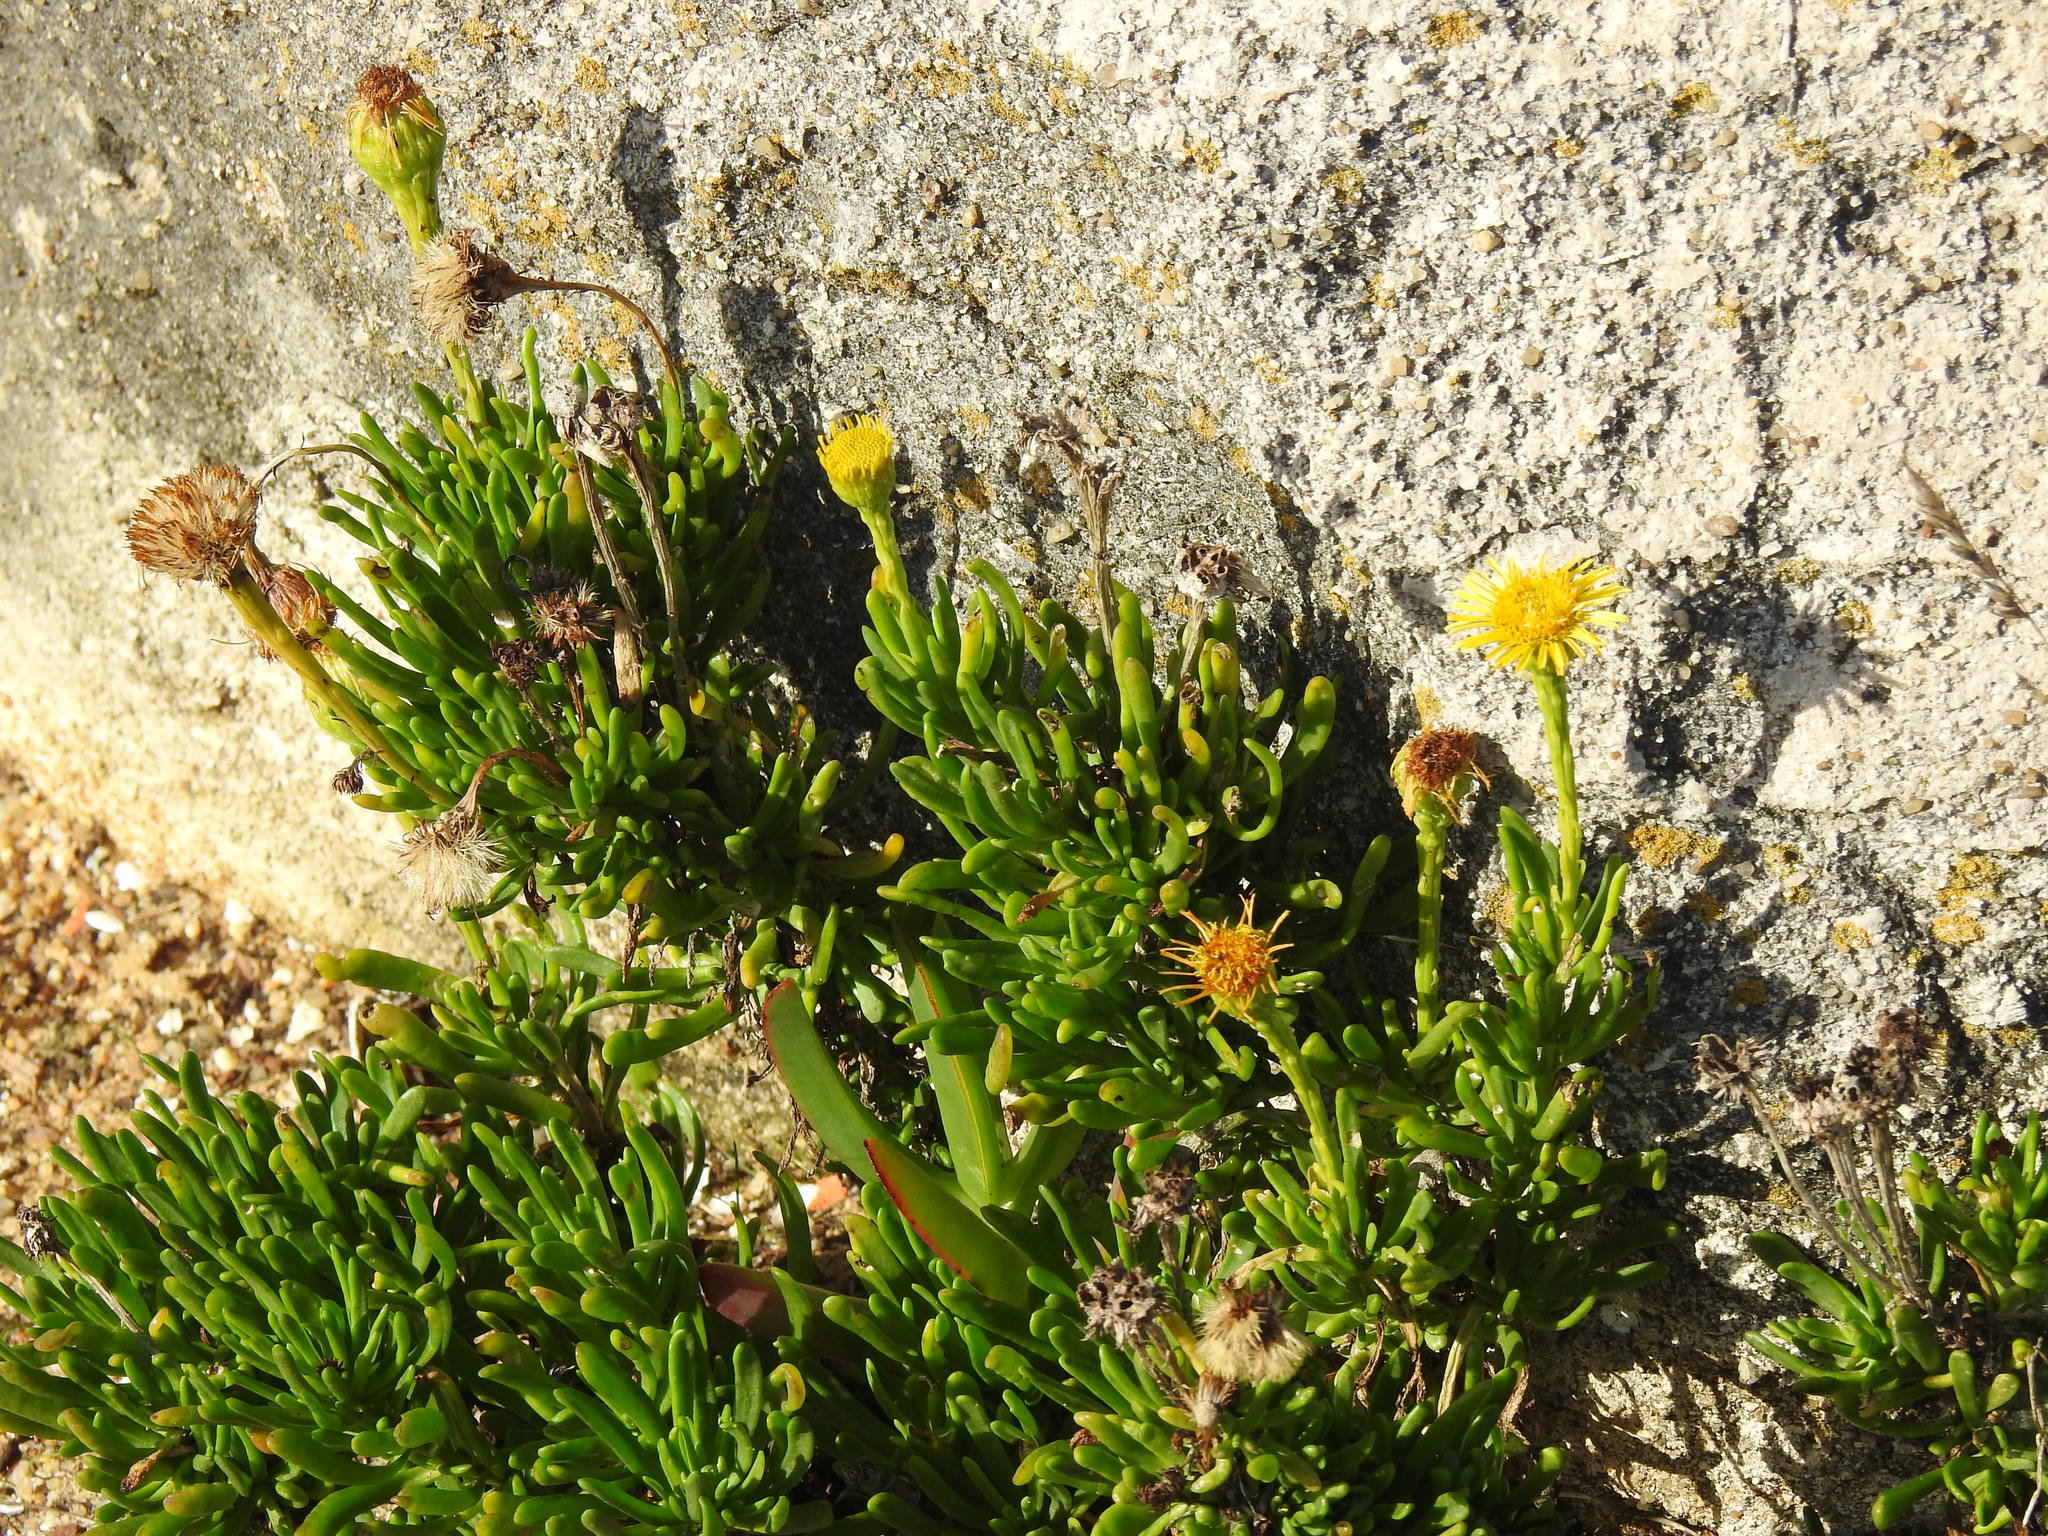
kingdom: Plantae
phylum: Tracheophyta
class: Magnoliopsida
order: Asterales
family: Asteraceae
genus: Limbarda
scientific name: Limbarda crithmoides
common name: Golden samphire
